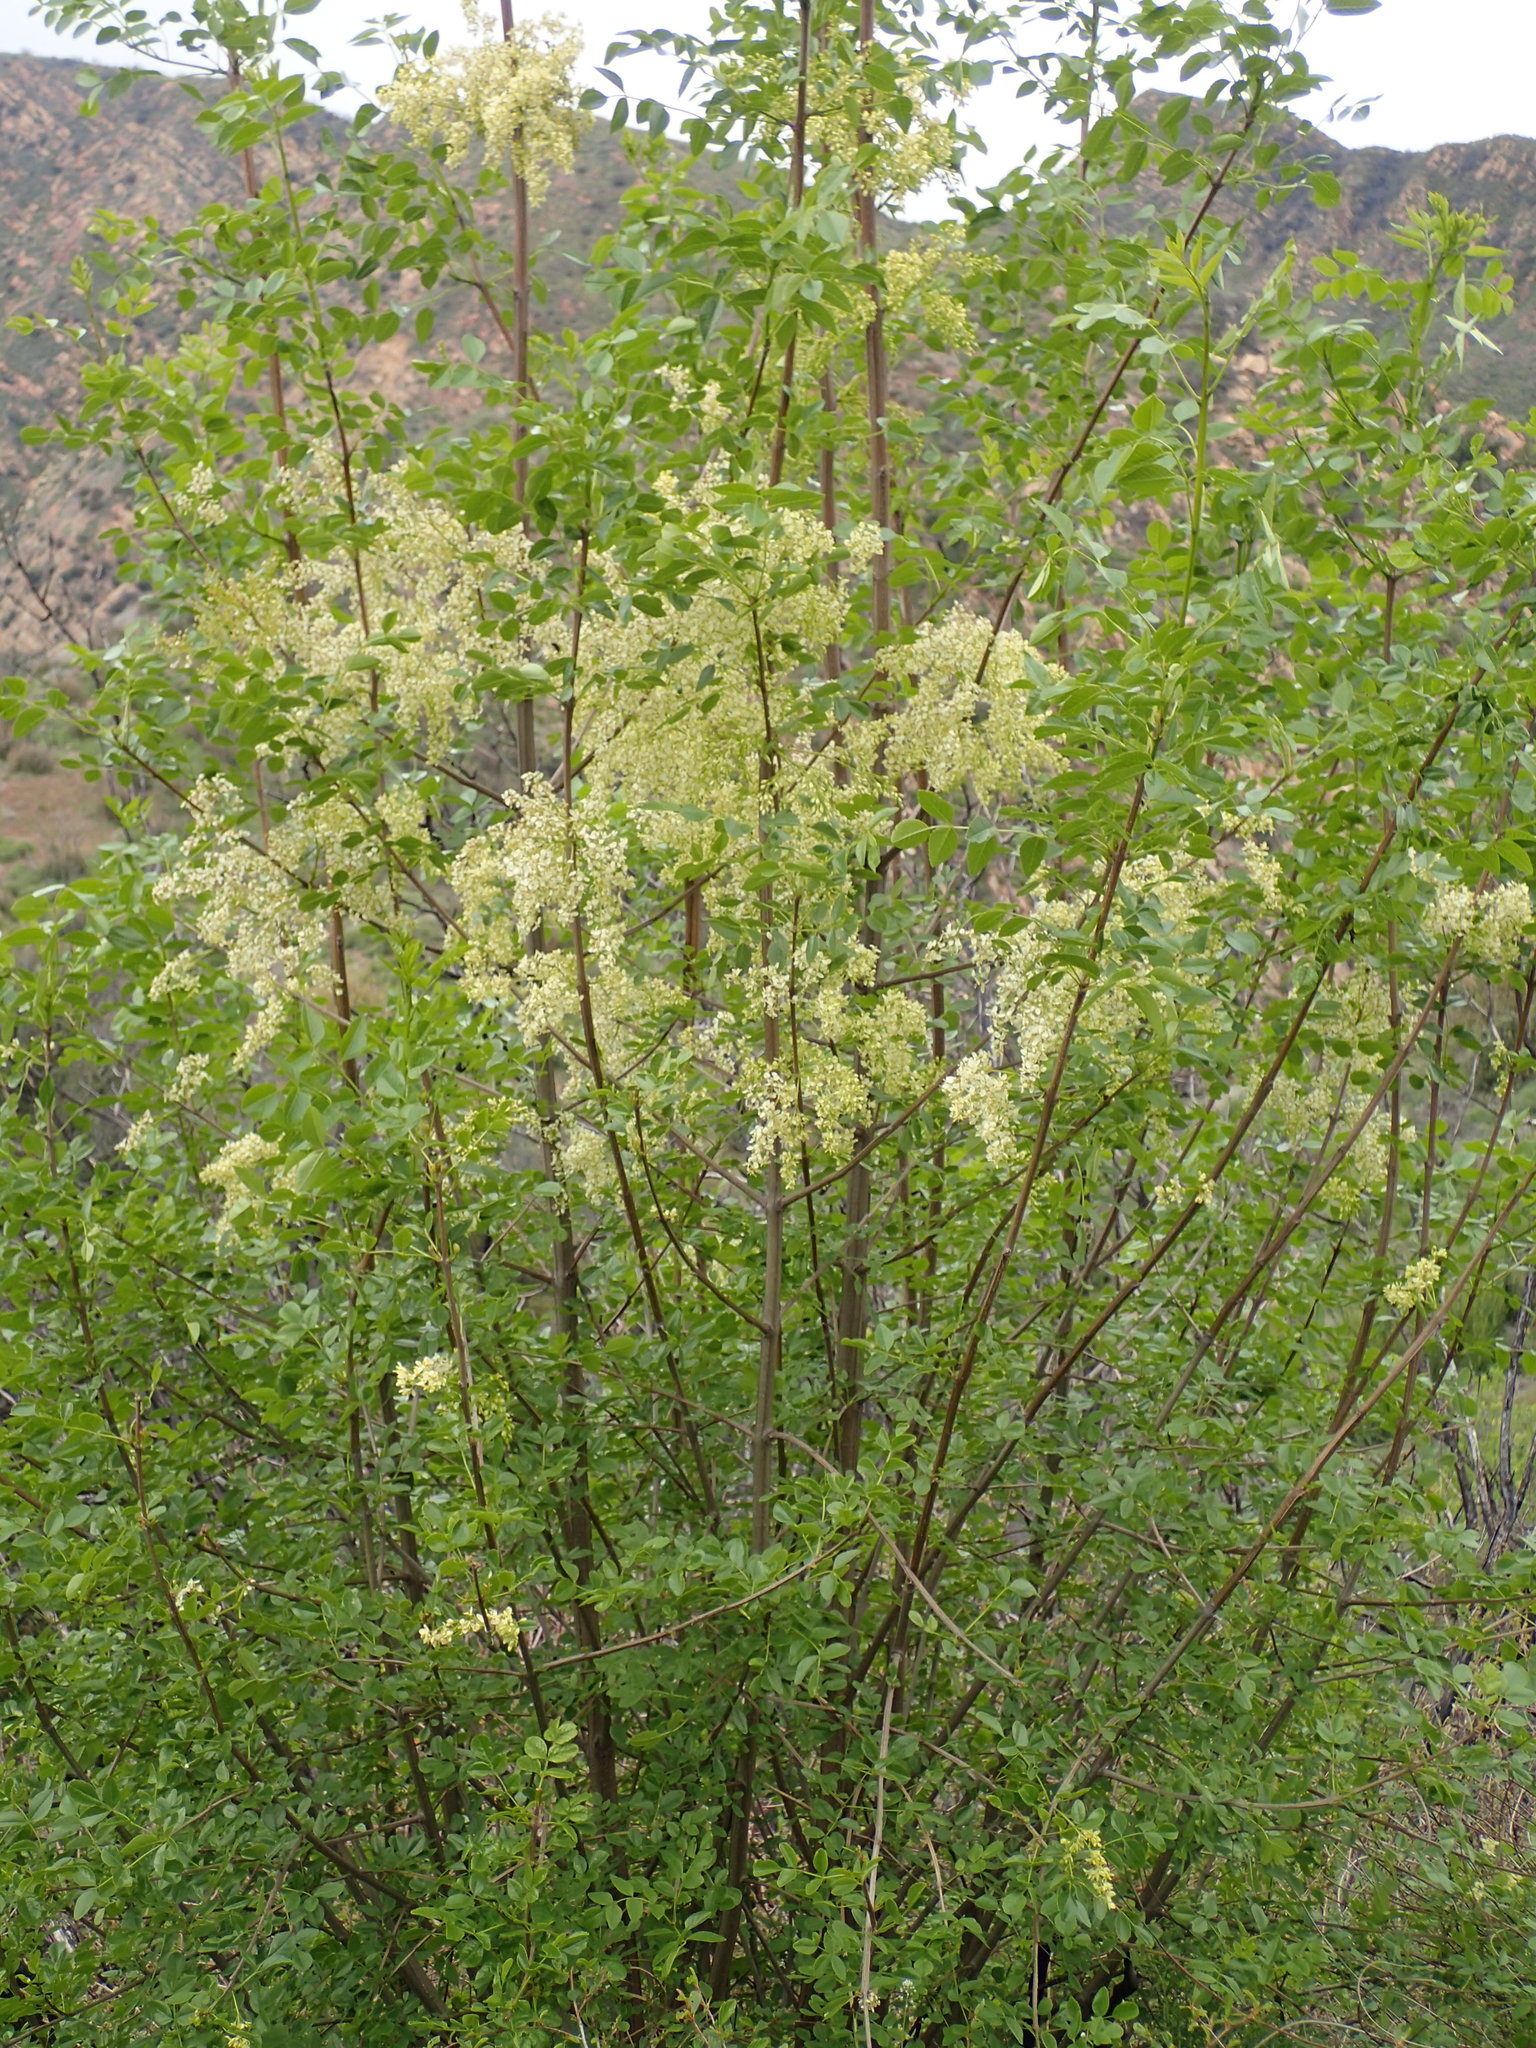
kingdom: Plantae
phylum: Tracheophyta
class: Magnoliopsida
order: Lamiales
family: Oleaceae
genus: Fraxinus
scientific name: Fraxinus dipetala
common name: California ash
